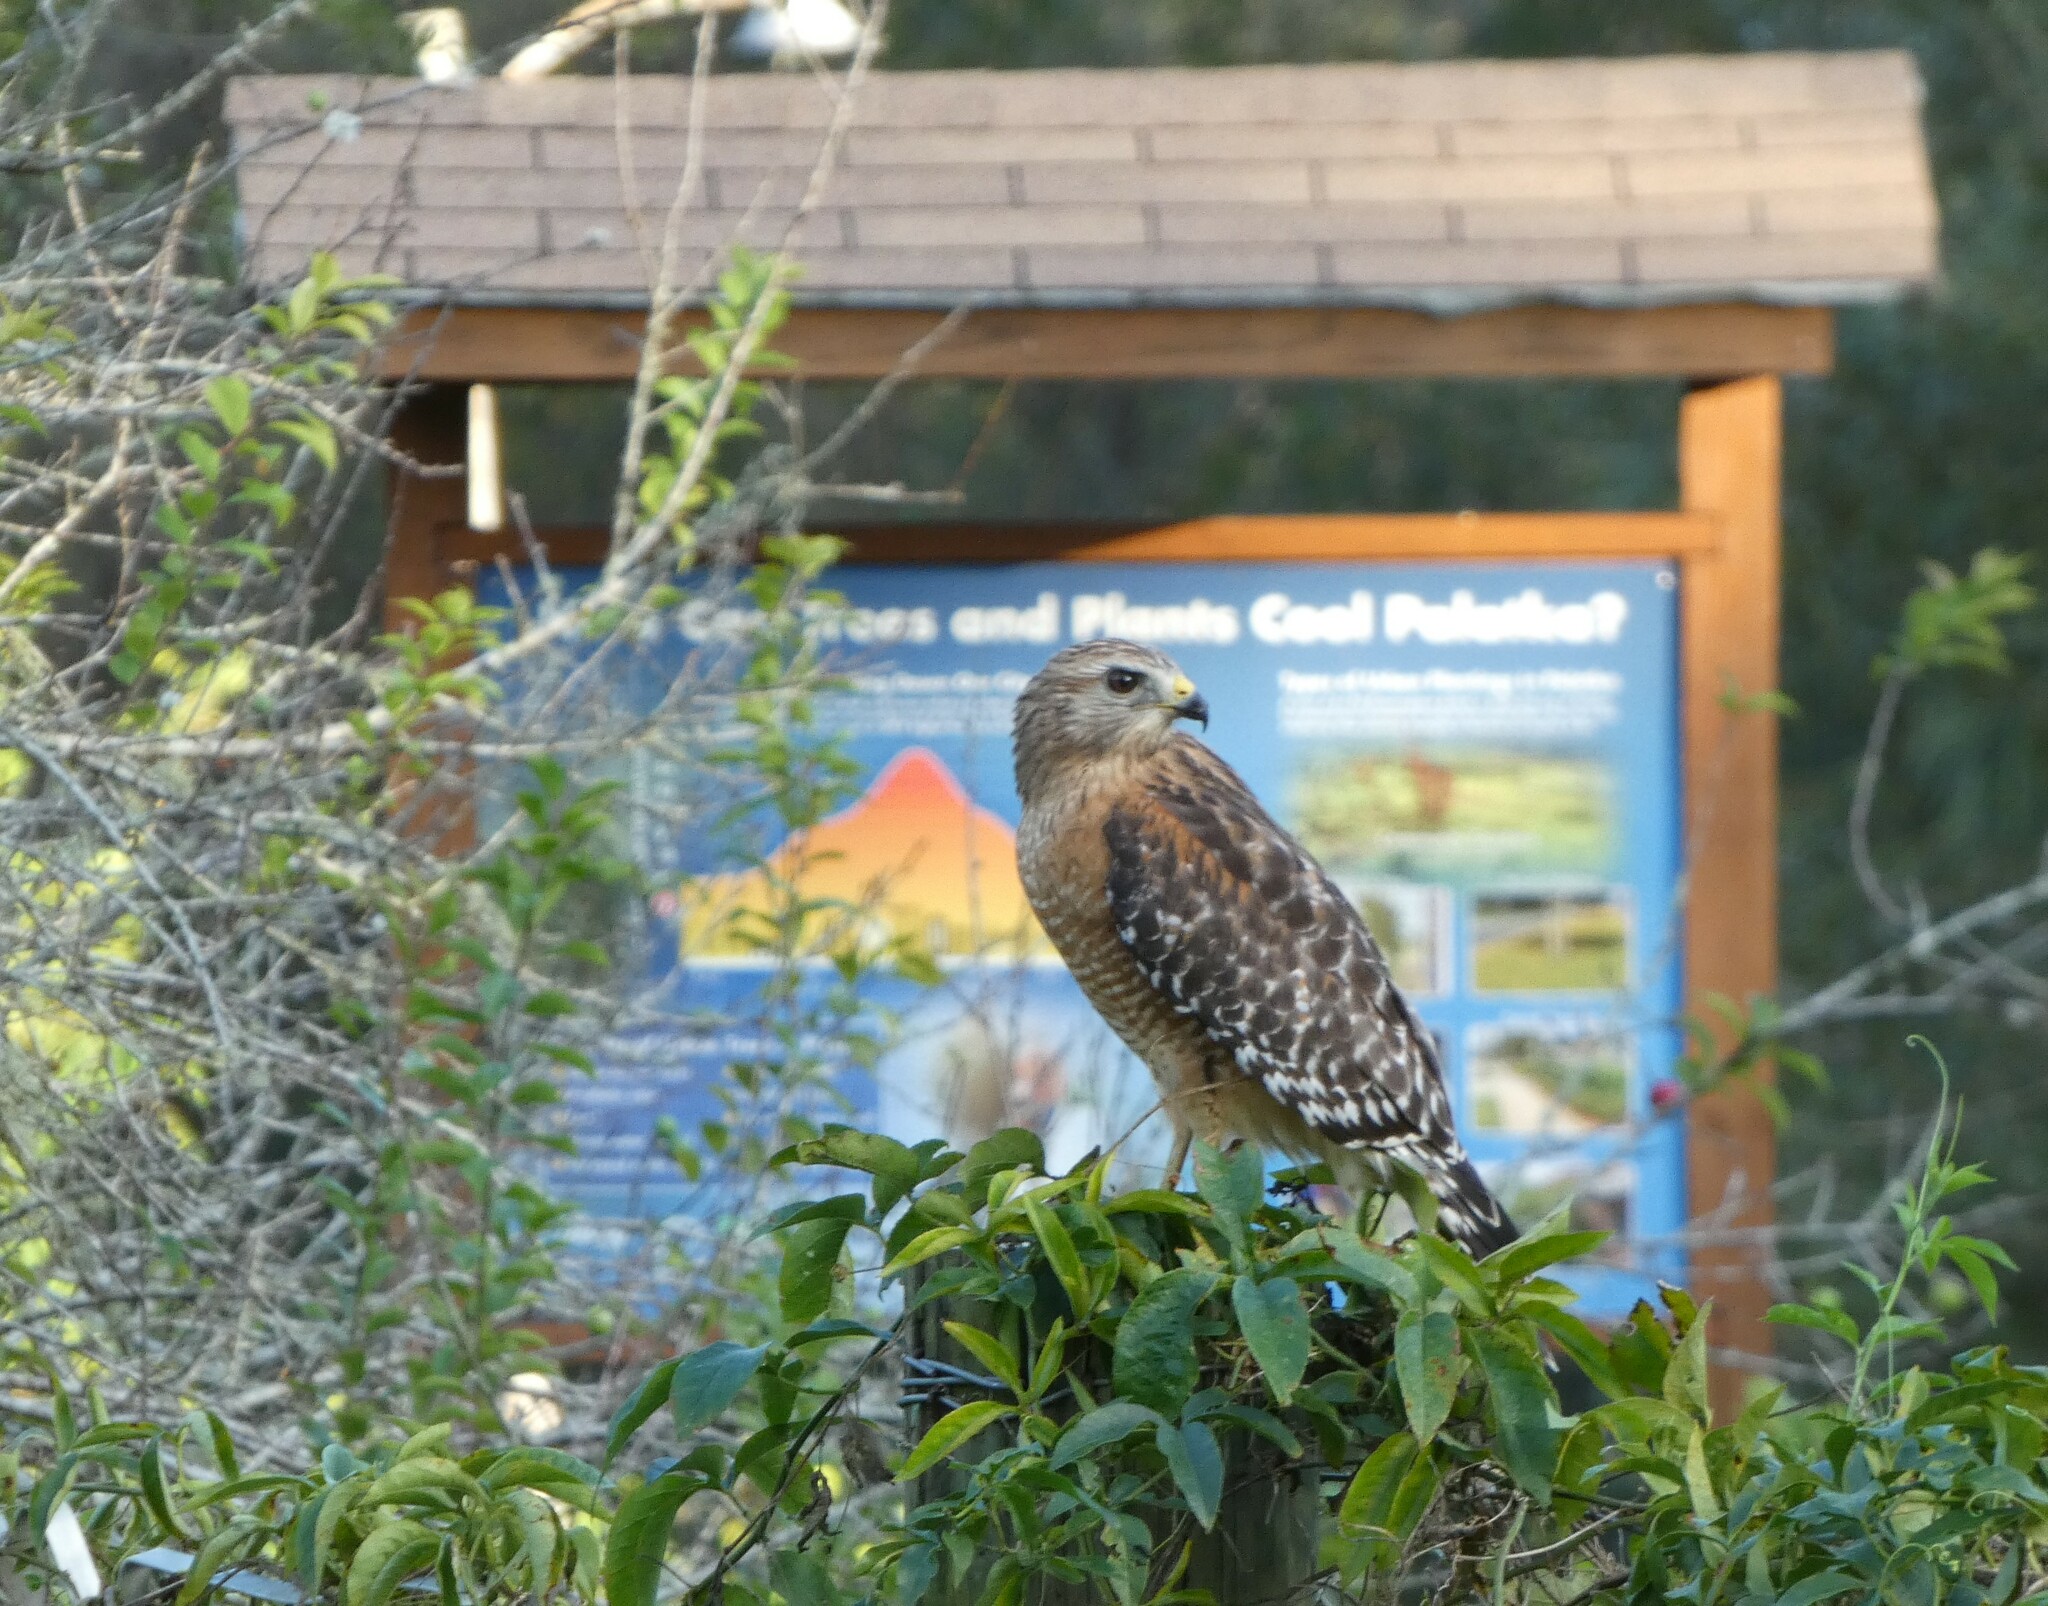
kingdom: Animalia
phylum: Chordata
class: Aves
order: Accipitriformes
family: Accipitridae
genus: Buteo
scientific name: Buteo lineatus
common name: Red-shouldered hawk
